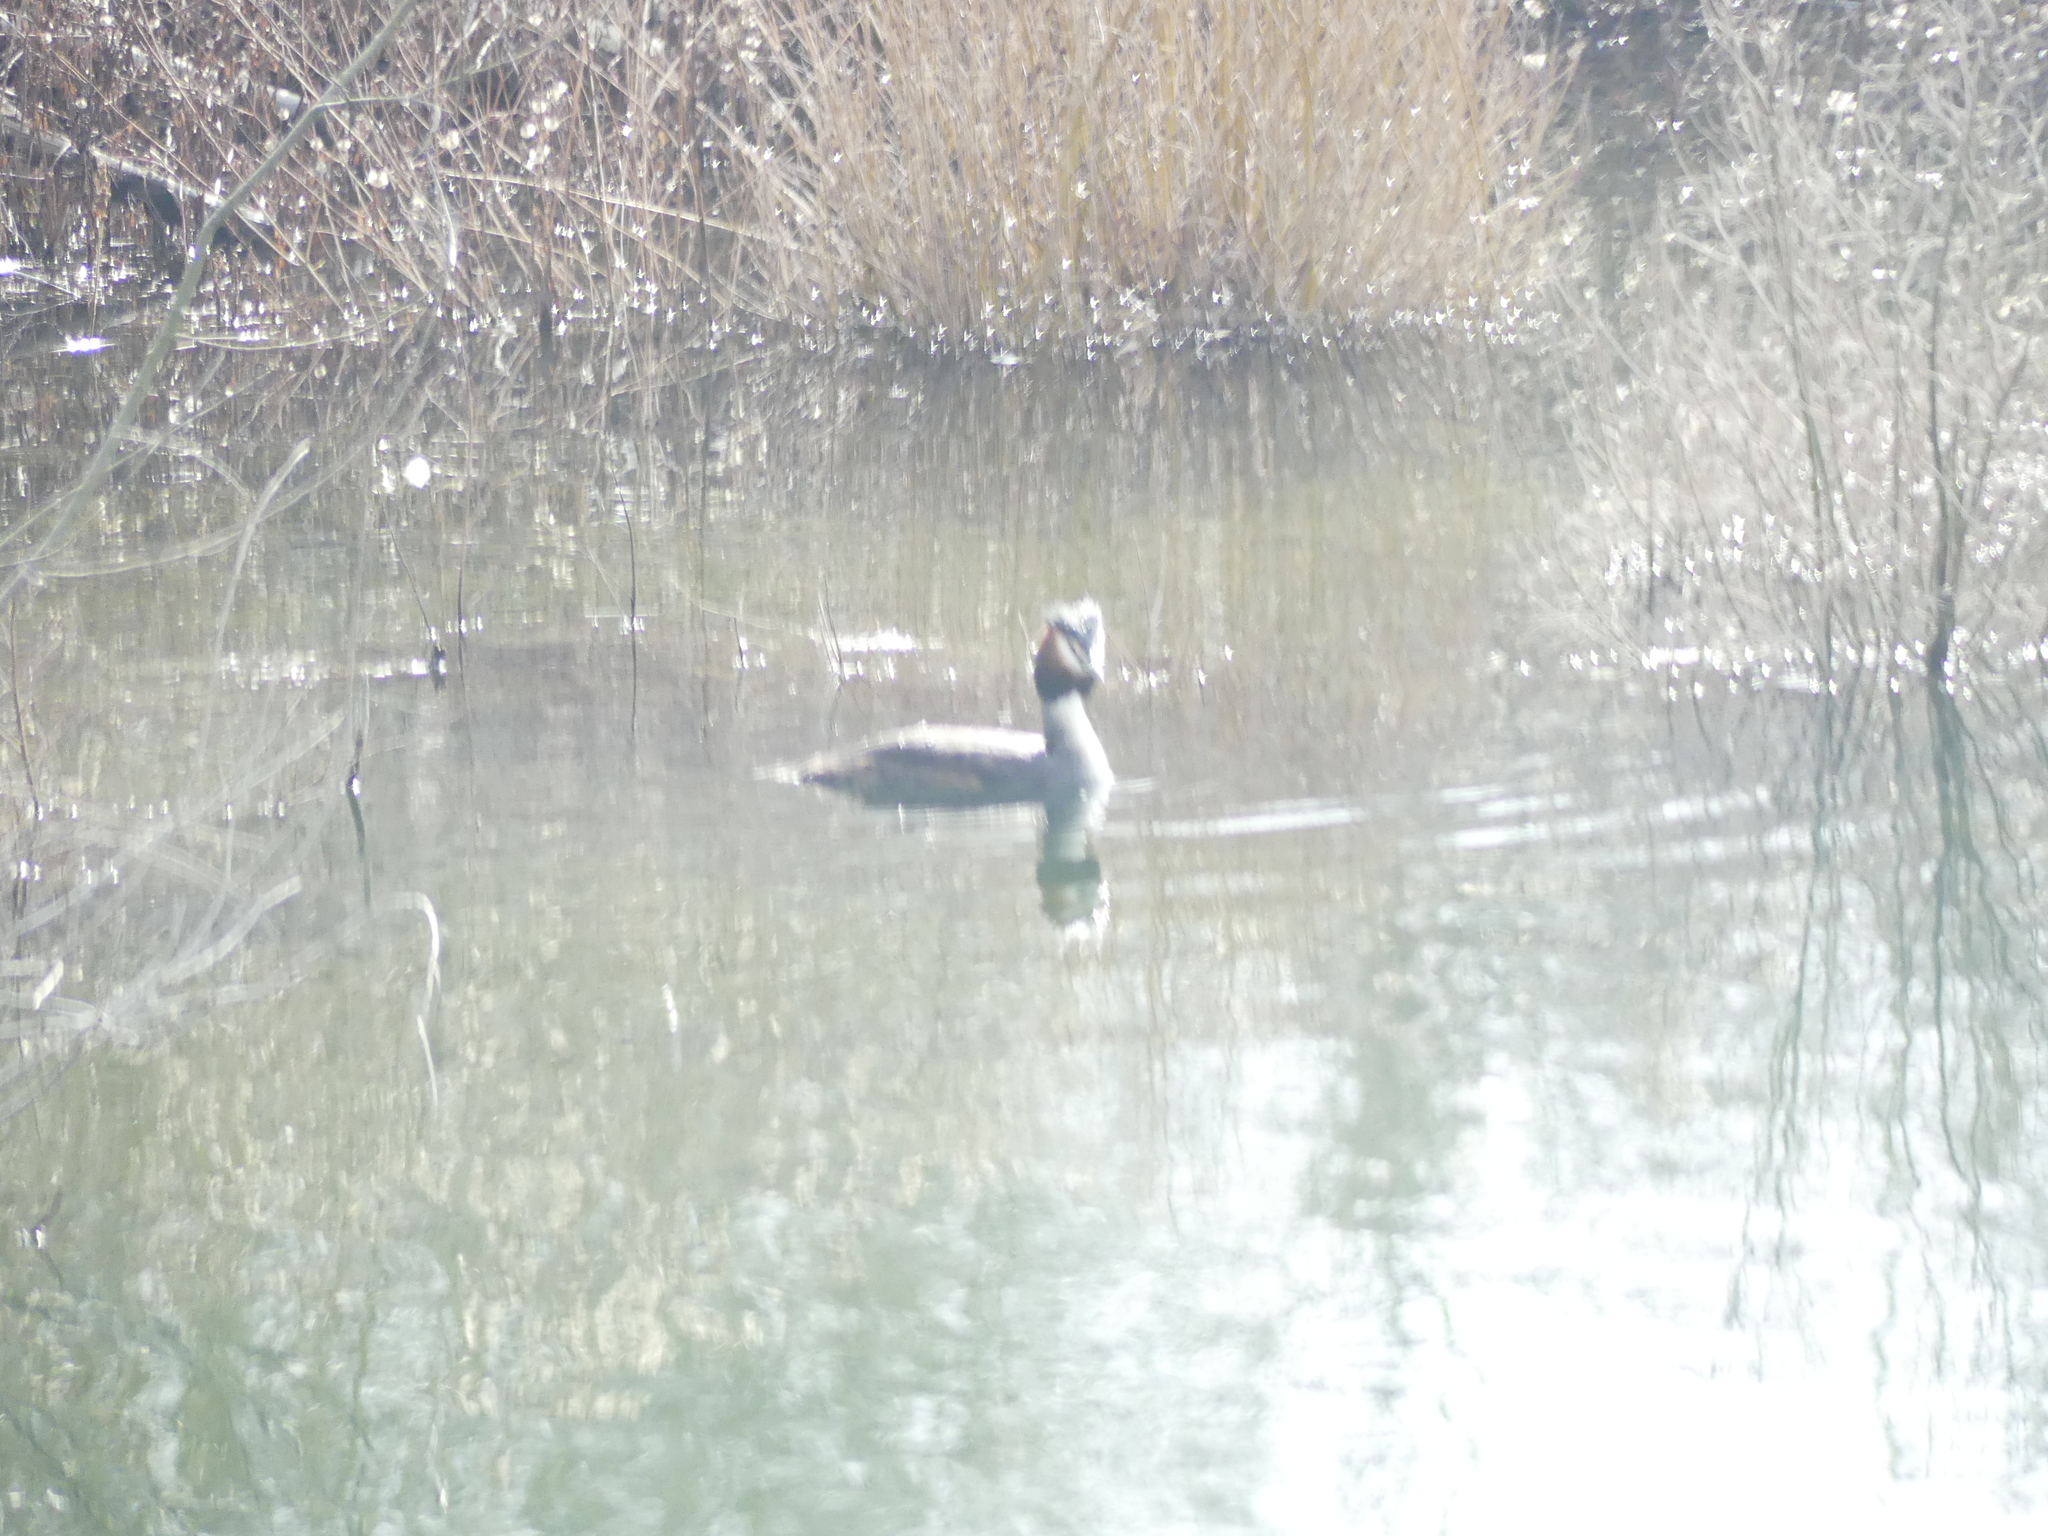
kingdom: Animalia
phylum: Chordata
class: Aves
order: Podicipediformes
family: Podicipedidae
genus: Podiceps
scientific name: Podiceps cristatus
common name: Great crested grebe
